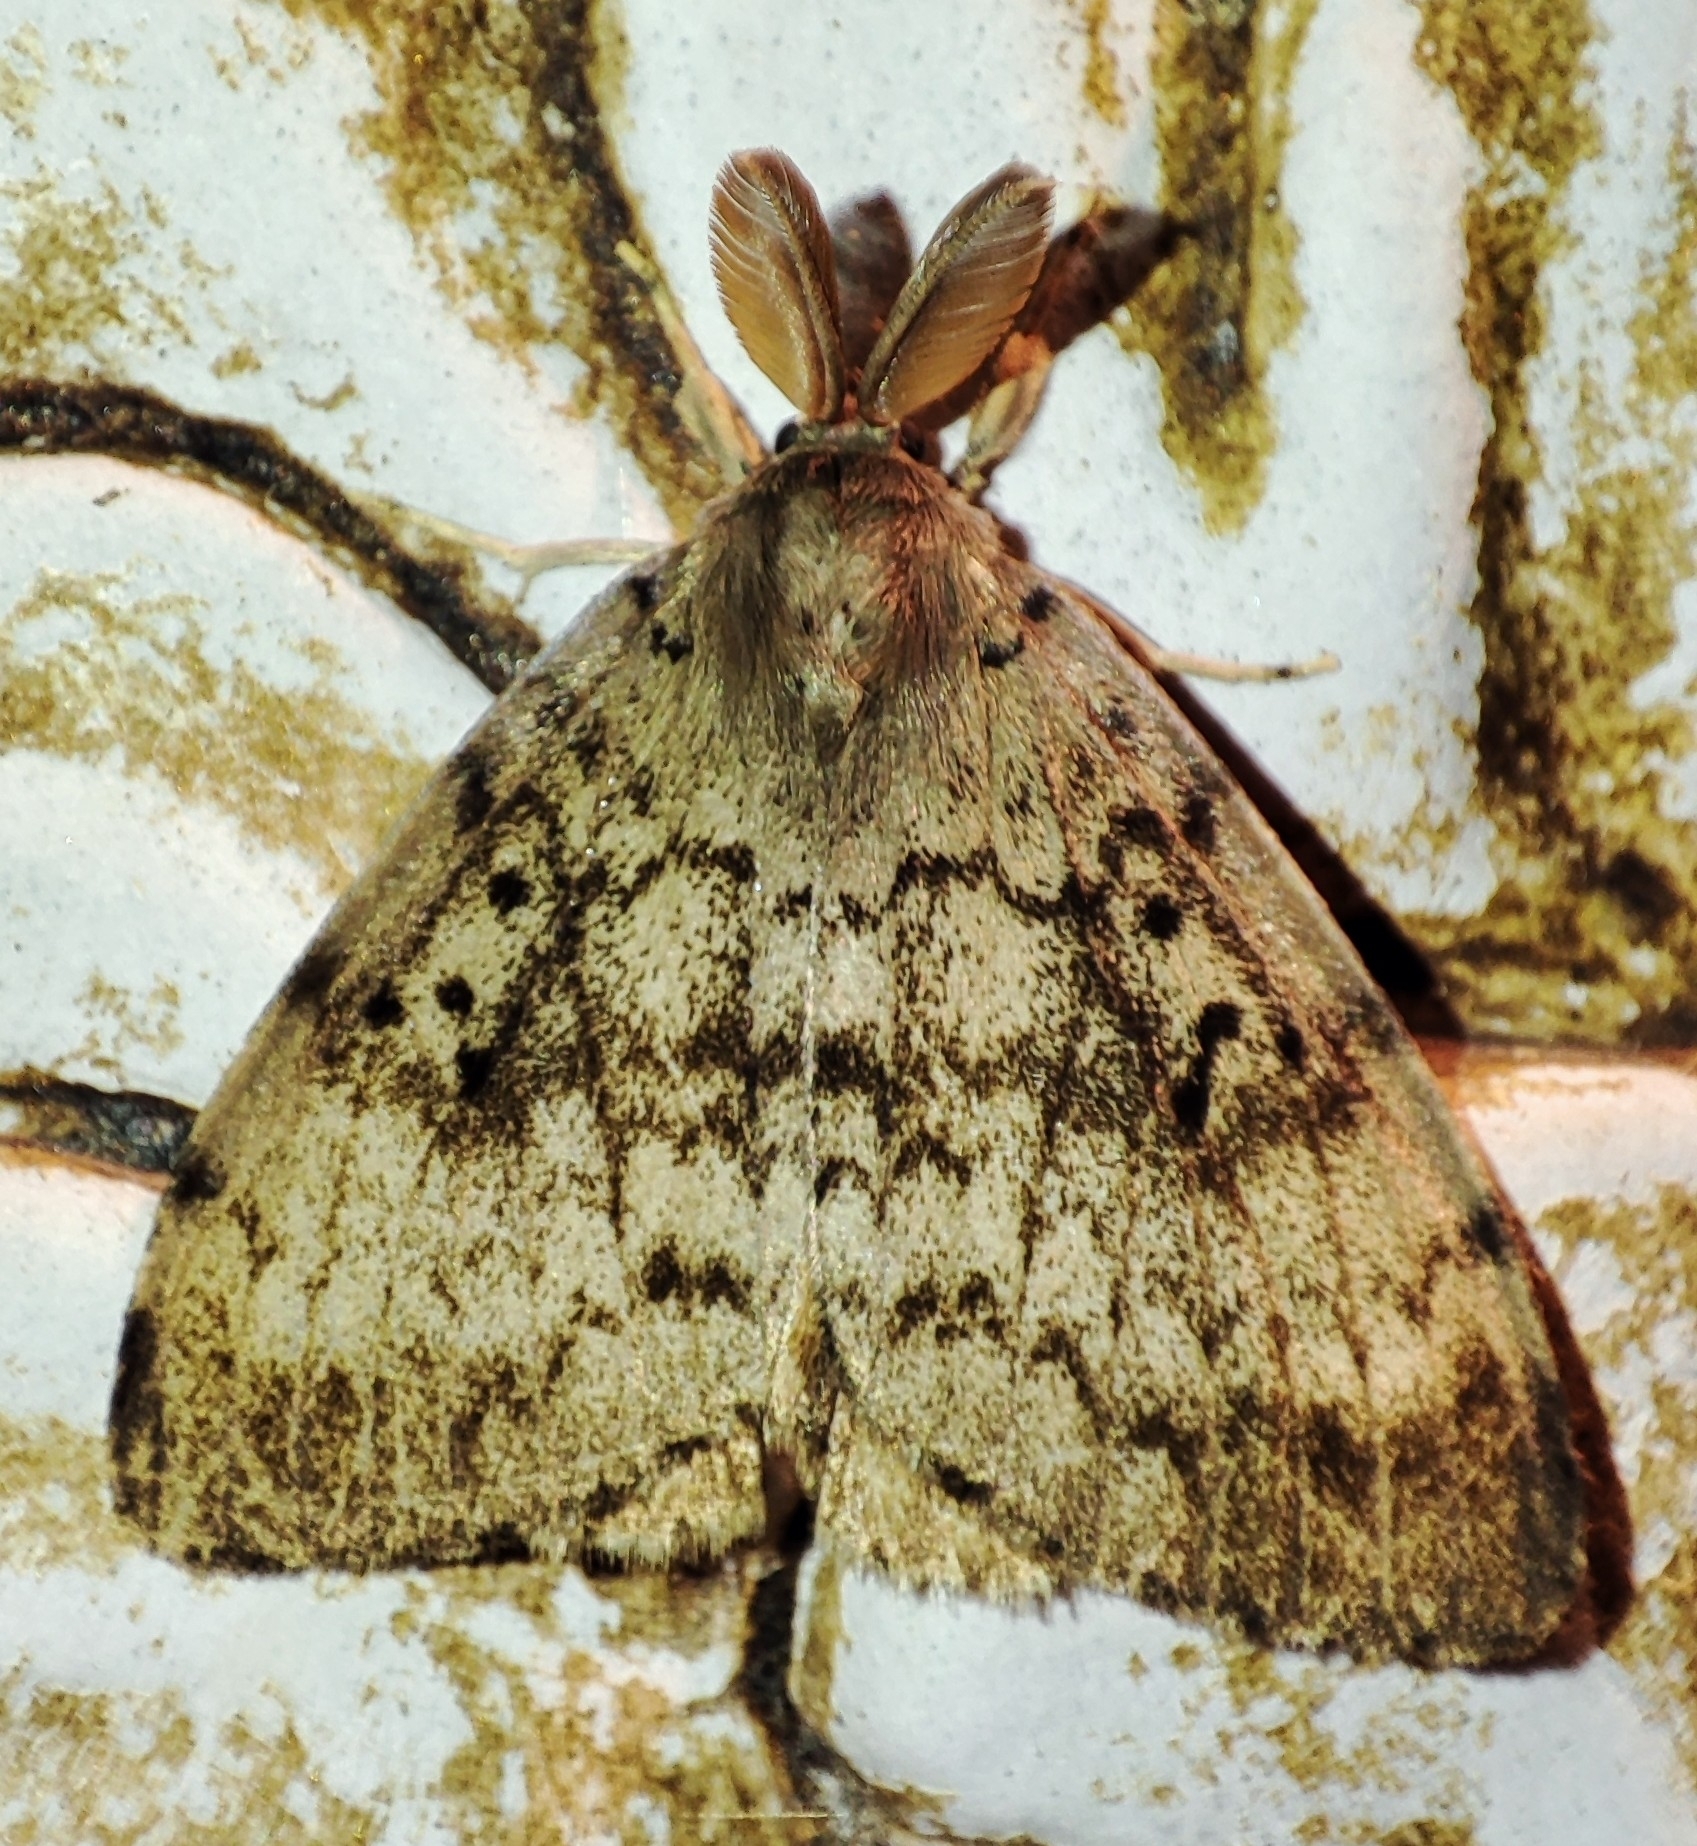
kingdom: Animalia
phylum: Arthropoda
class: Insecta
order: Lepidoptera
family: Erebidae
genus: Lymantria
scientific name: Lymantria dispar
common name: Gypsy moth
